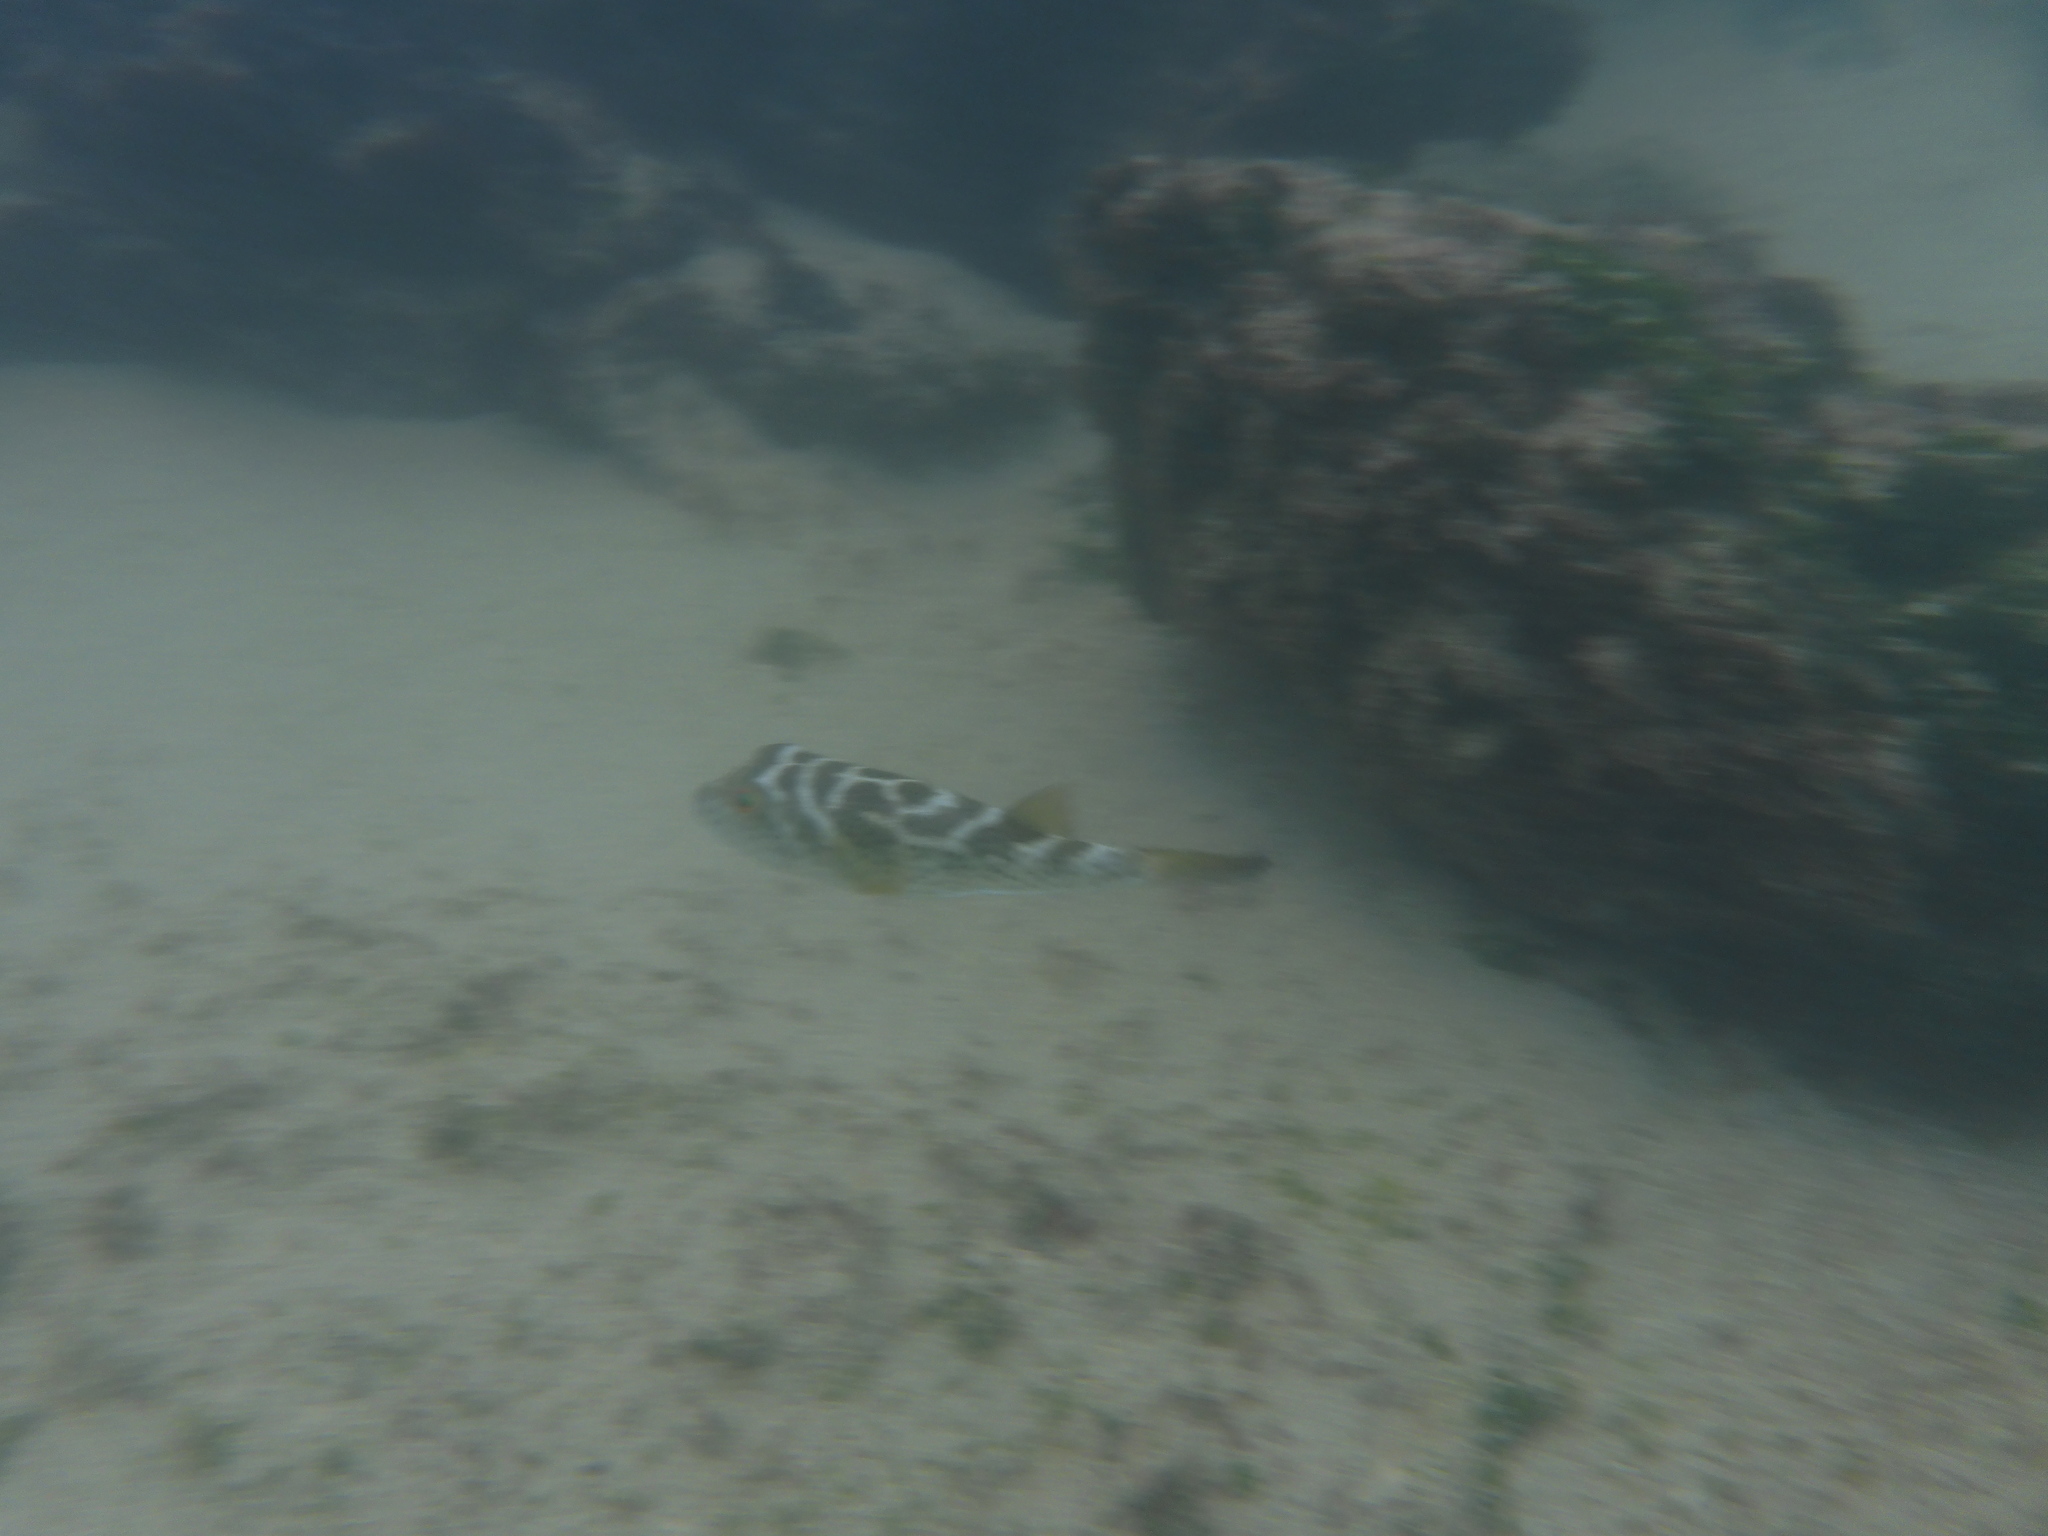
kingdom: Animalia
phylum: Chordata
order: Tetraodontiformes
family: Tetraodontidae
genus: Sphoeroides
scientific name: Sphoeroides annulatus
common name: Bullseye puffer
